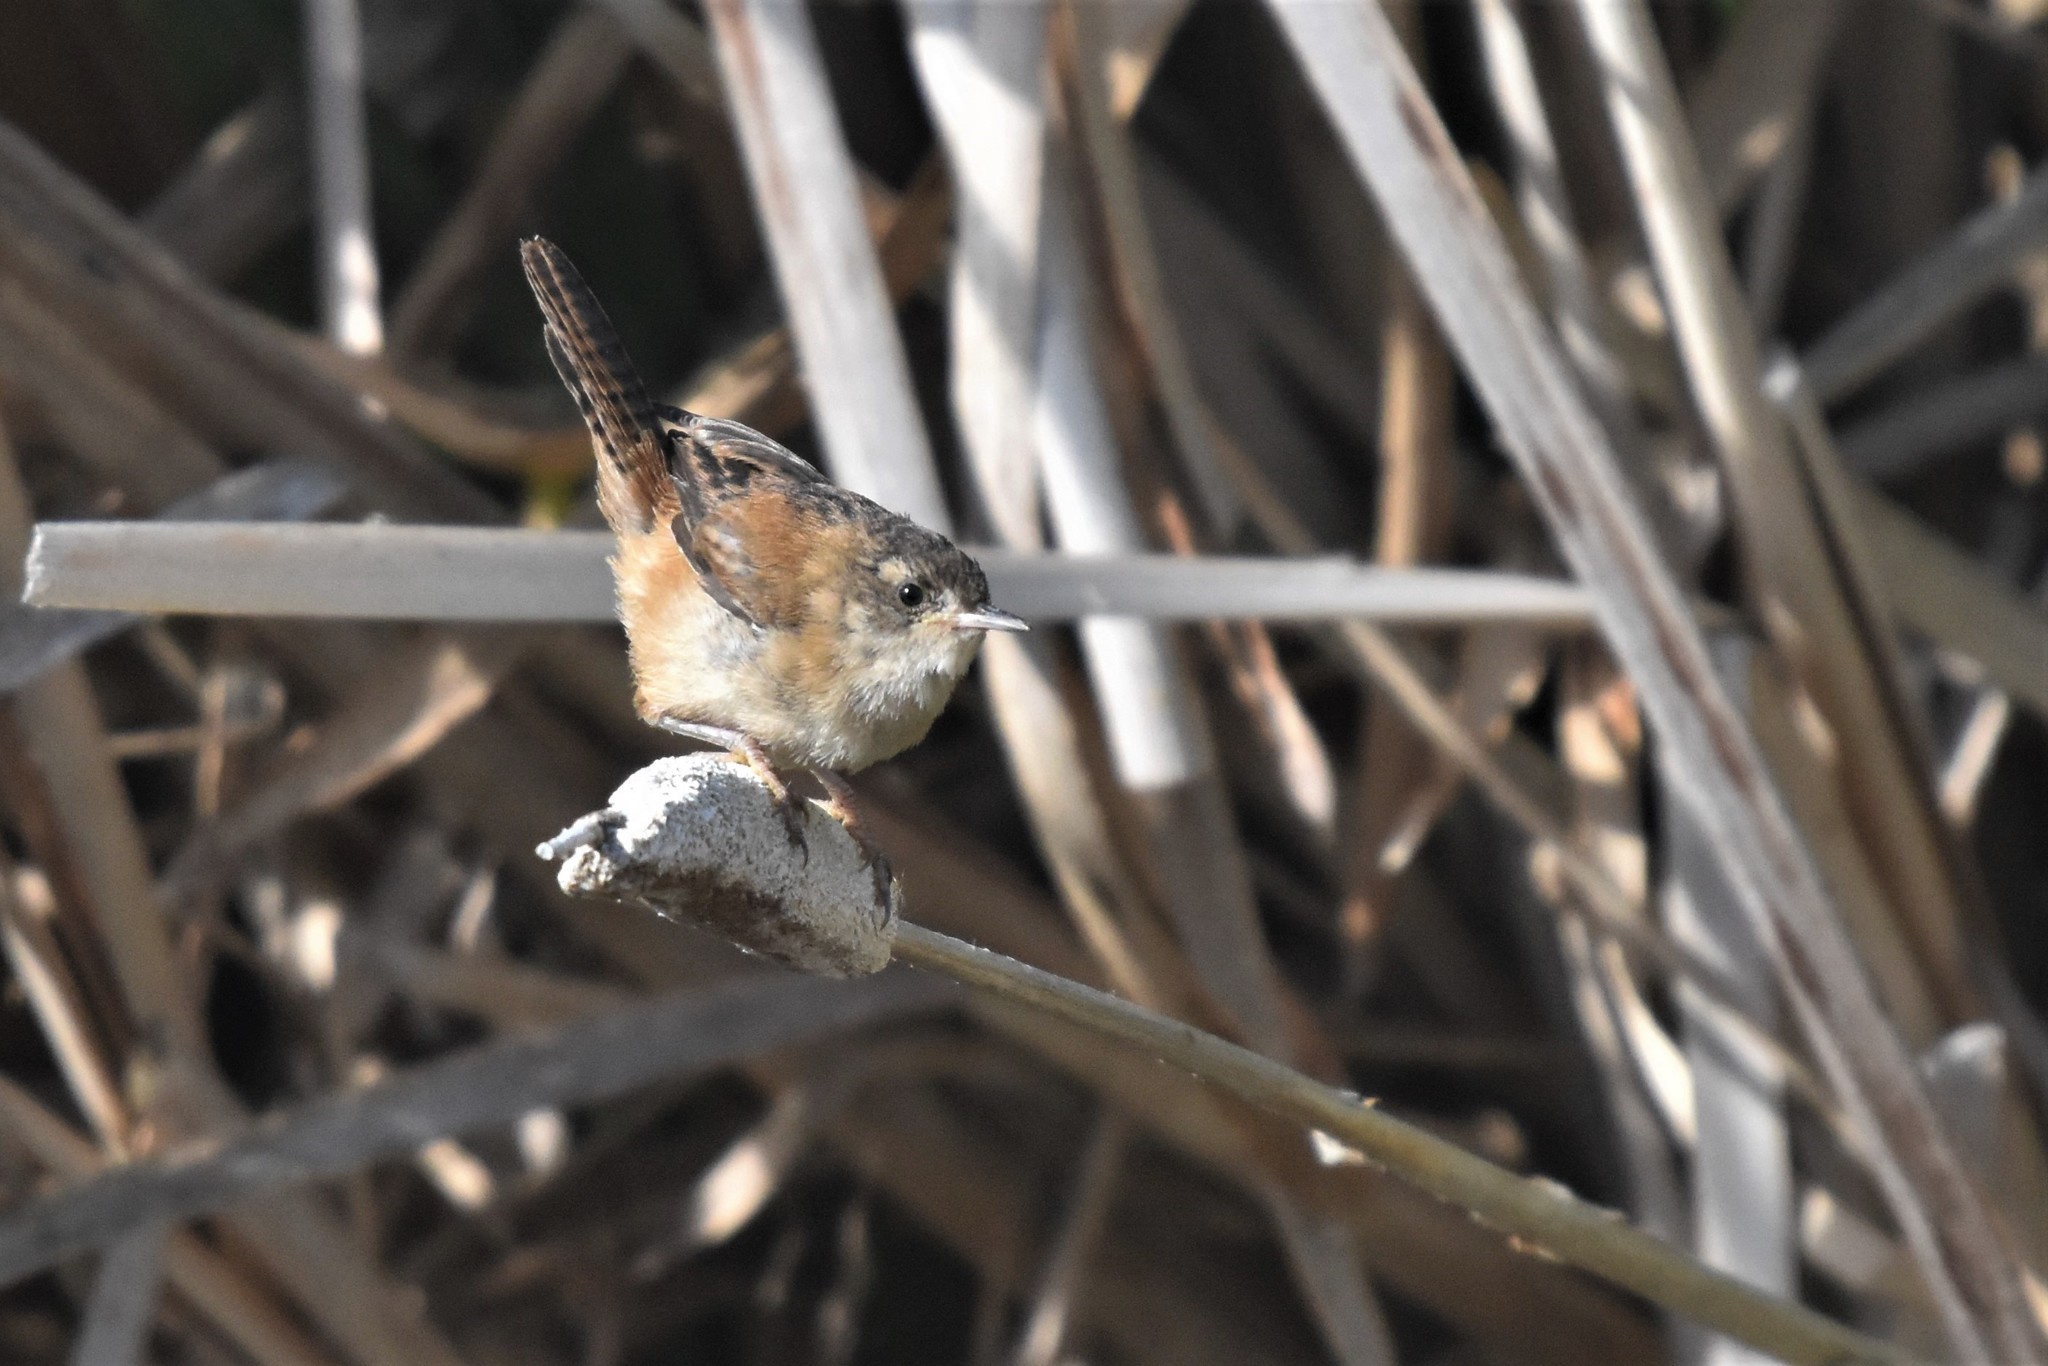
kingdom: Animalia
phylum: Chordata
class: Aves
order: Passeriformes
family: Troglodytidae
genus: Cistothorus
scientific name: Cistothorus palustris
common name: Marsh wren
